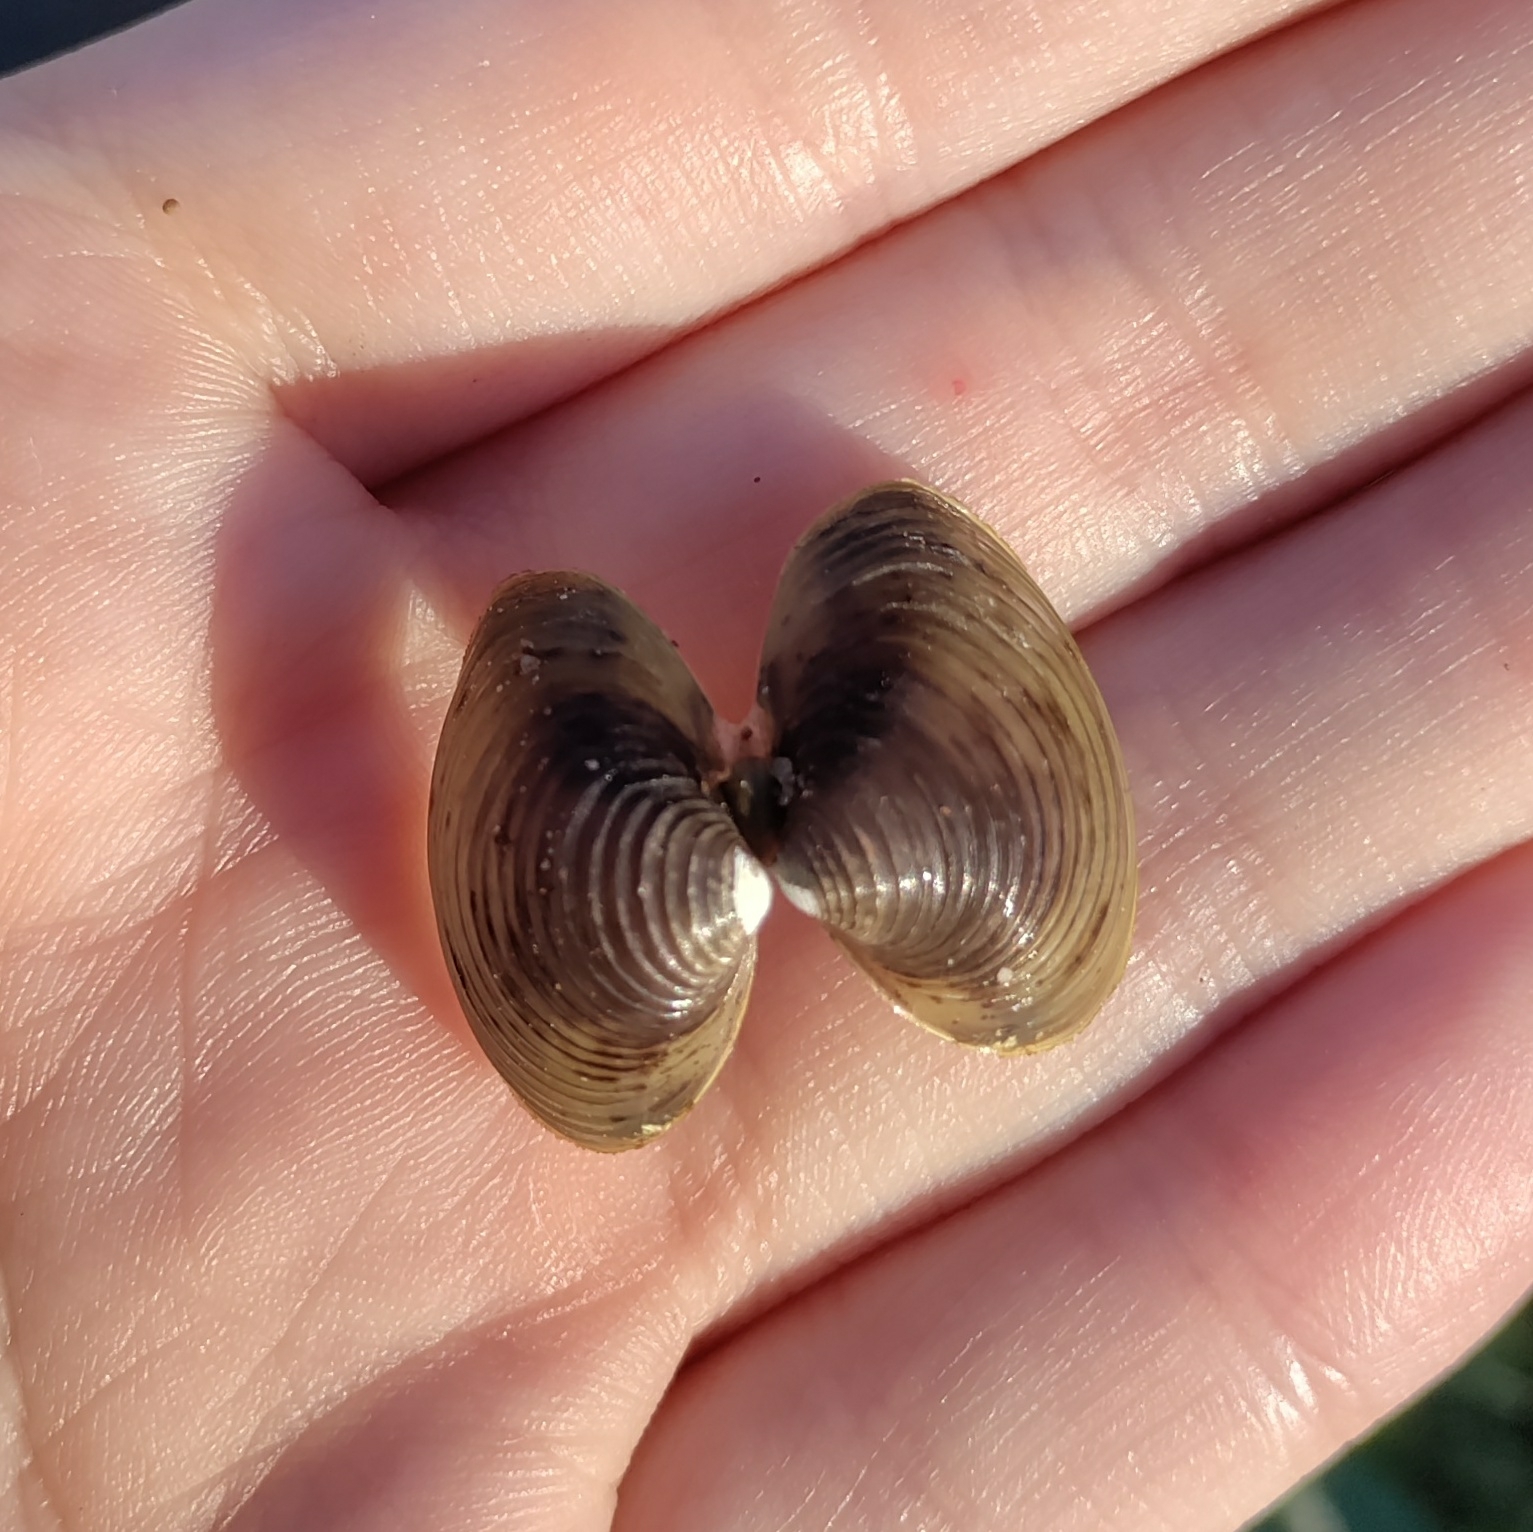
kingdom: Animalia
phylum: Mollusca
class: Bivalvia
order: Venerida
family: Cyrenidae
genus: Corbicula
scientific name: Corbicula fluminea
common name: Asian clam
